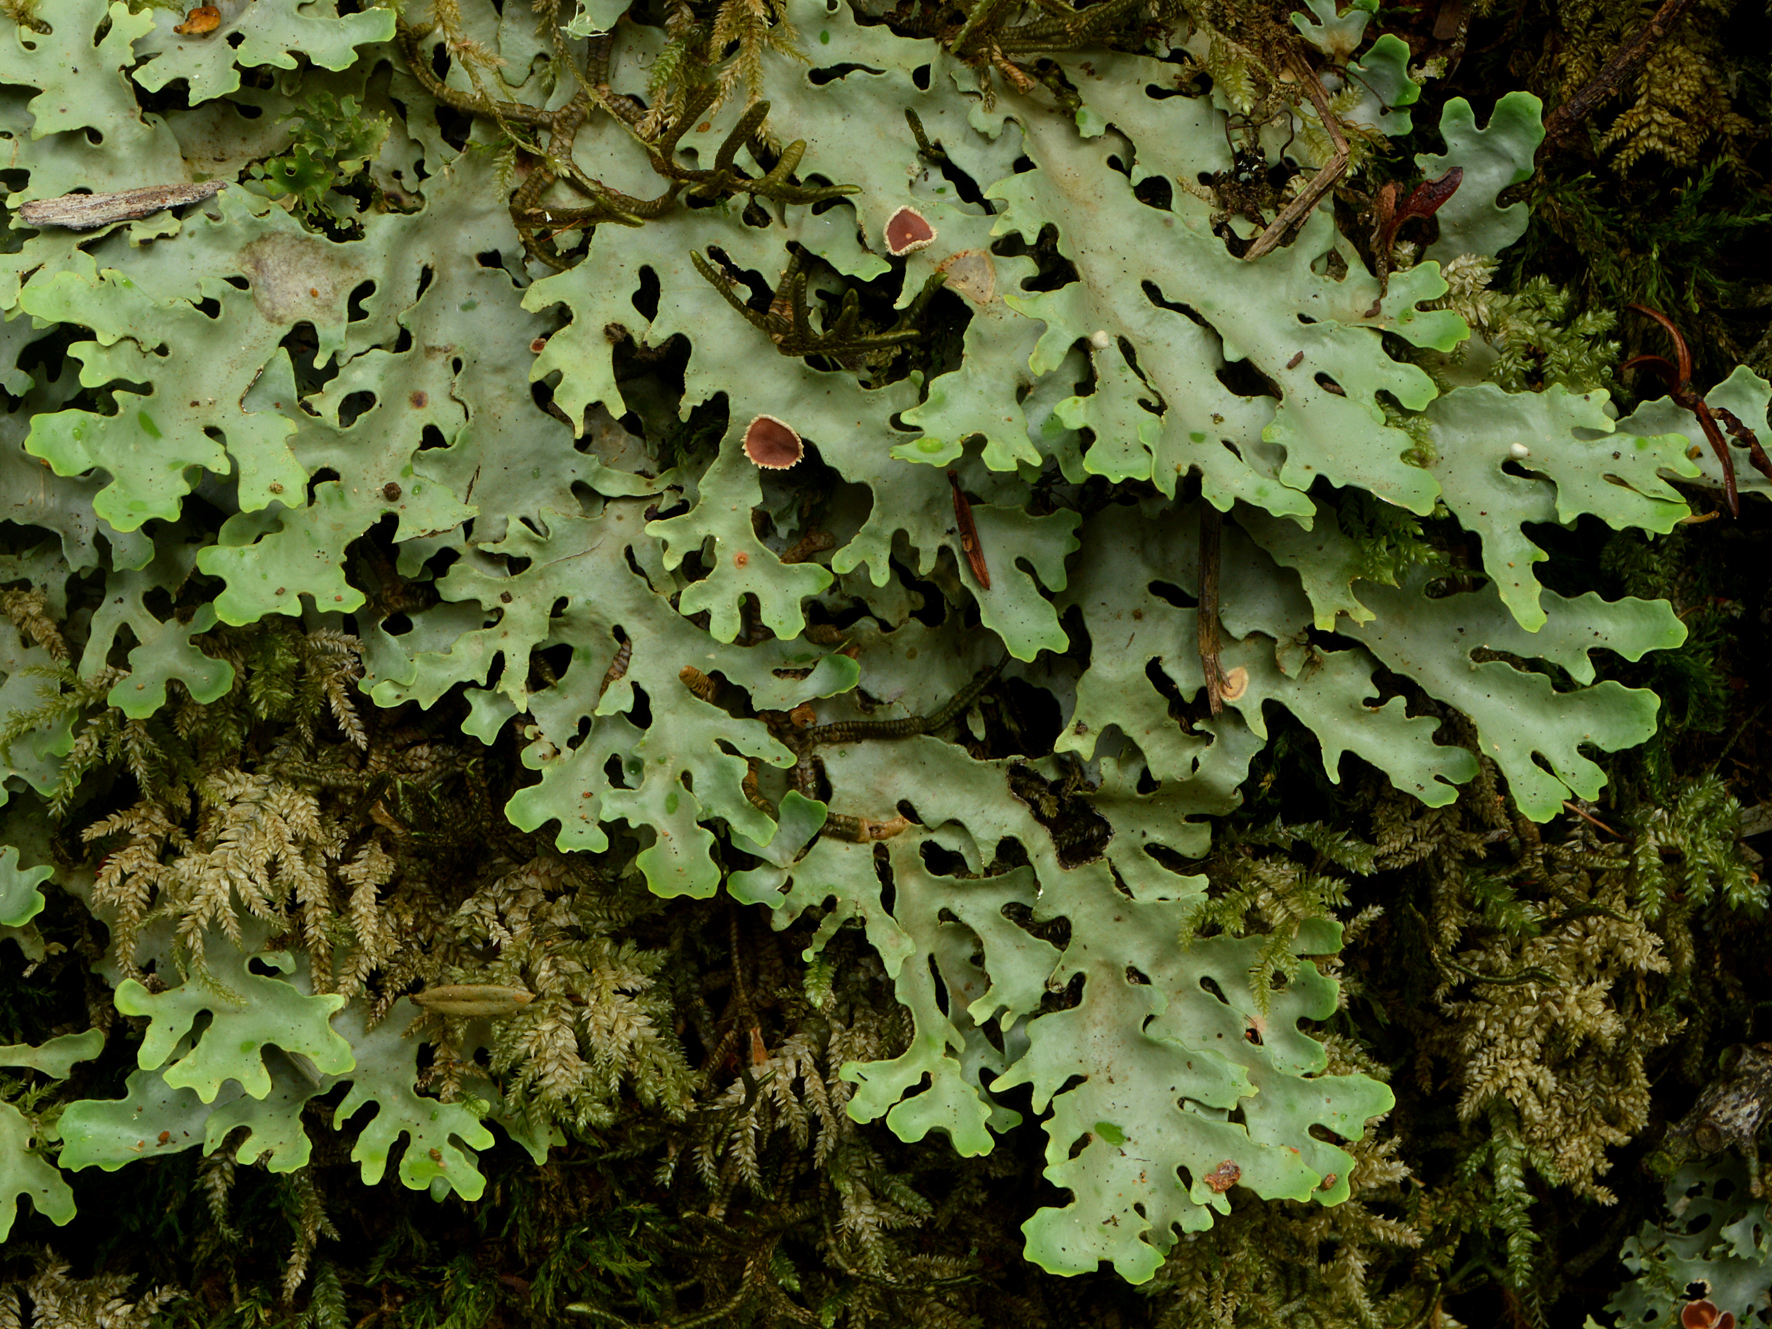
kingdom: Fungi
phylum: Ascomycota
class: Lecanoromycetes
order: Peltigerales
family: Lobariaceae
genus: Pseudocyphellaria
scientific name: Pseudocyphellaria homeophylla
